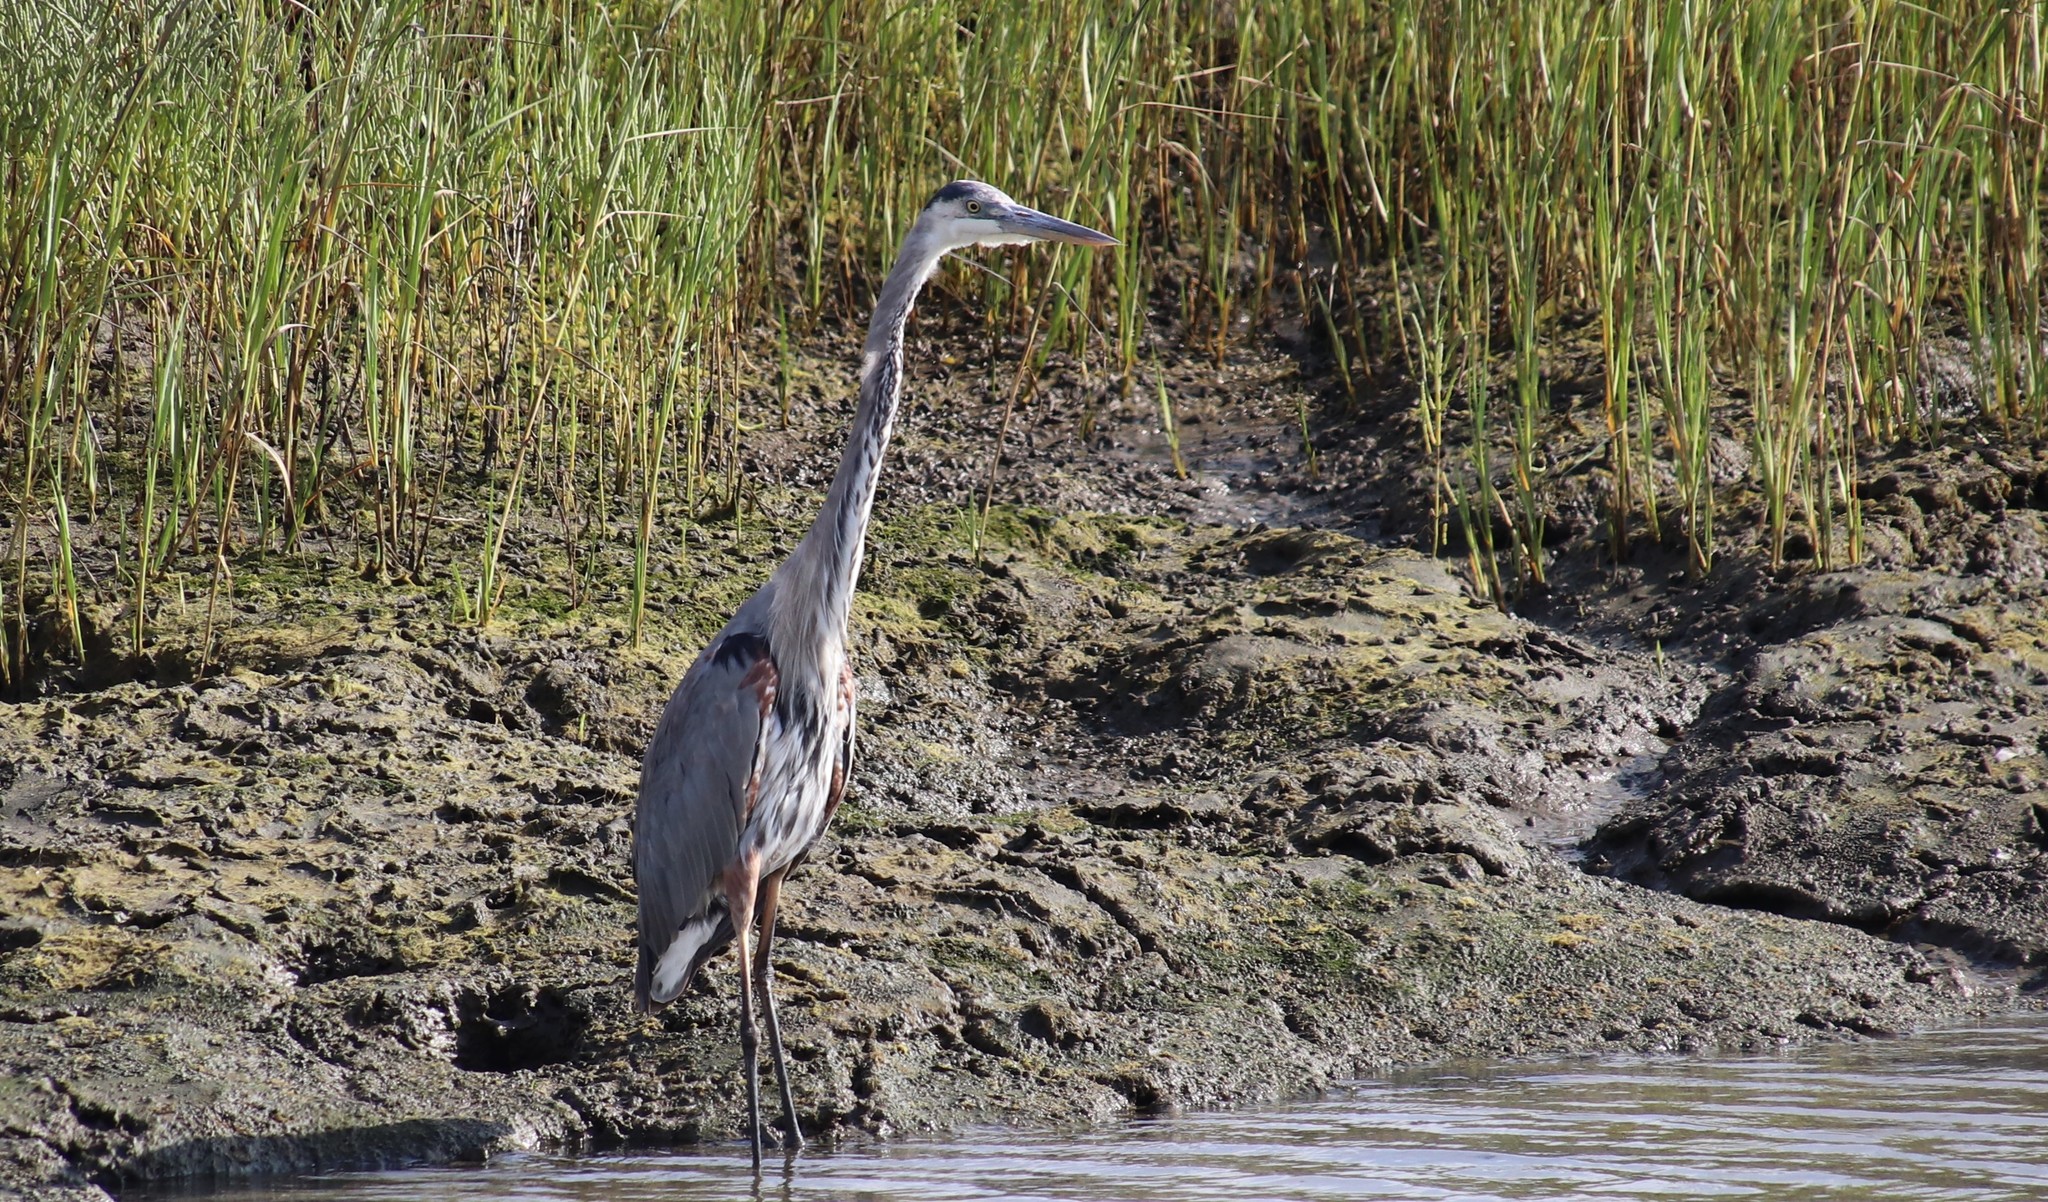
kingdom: Animalia
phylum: Chordata
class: Aves
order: Pelecaniformes
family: Ardeidae
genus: Ardea
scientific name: Ardea herodias
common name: Great blue heron
